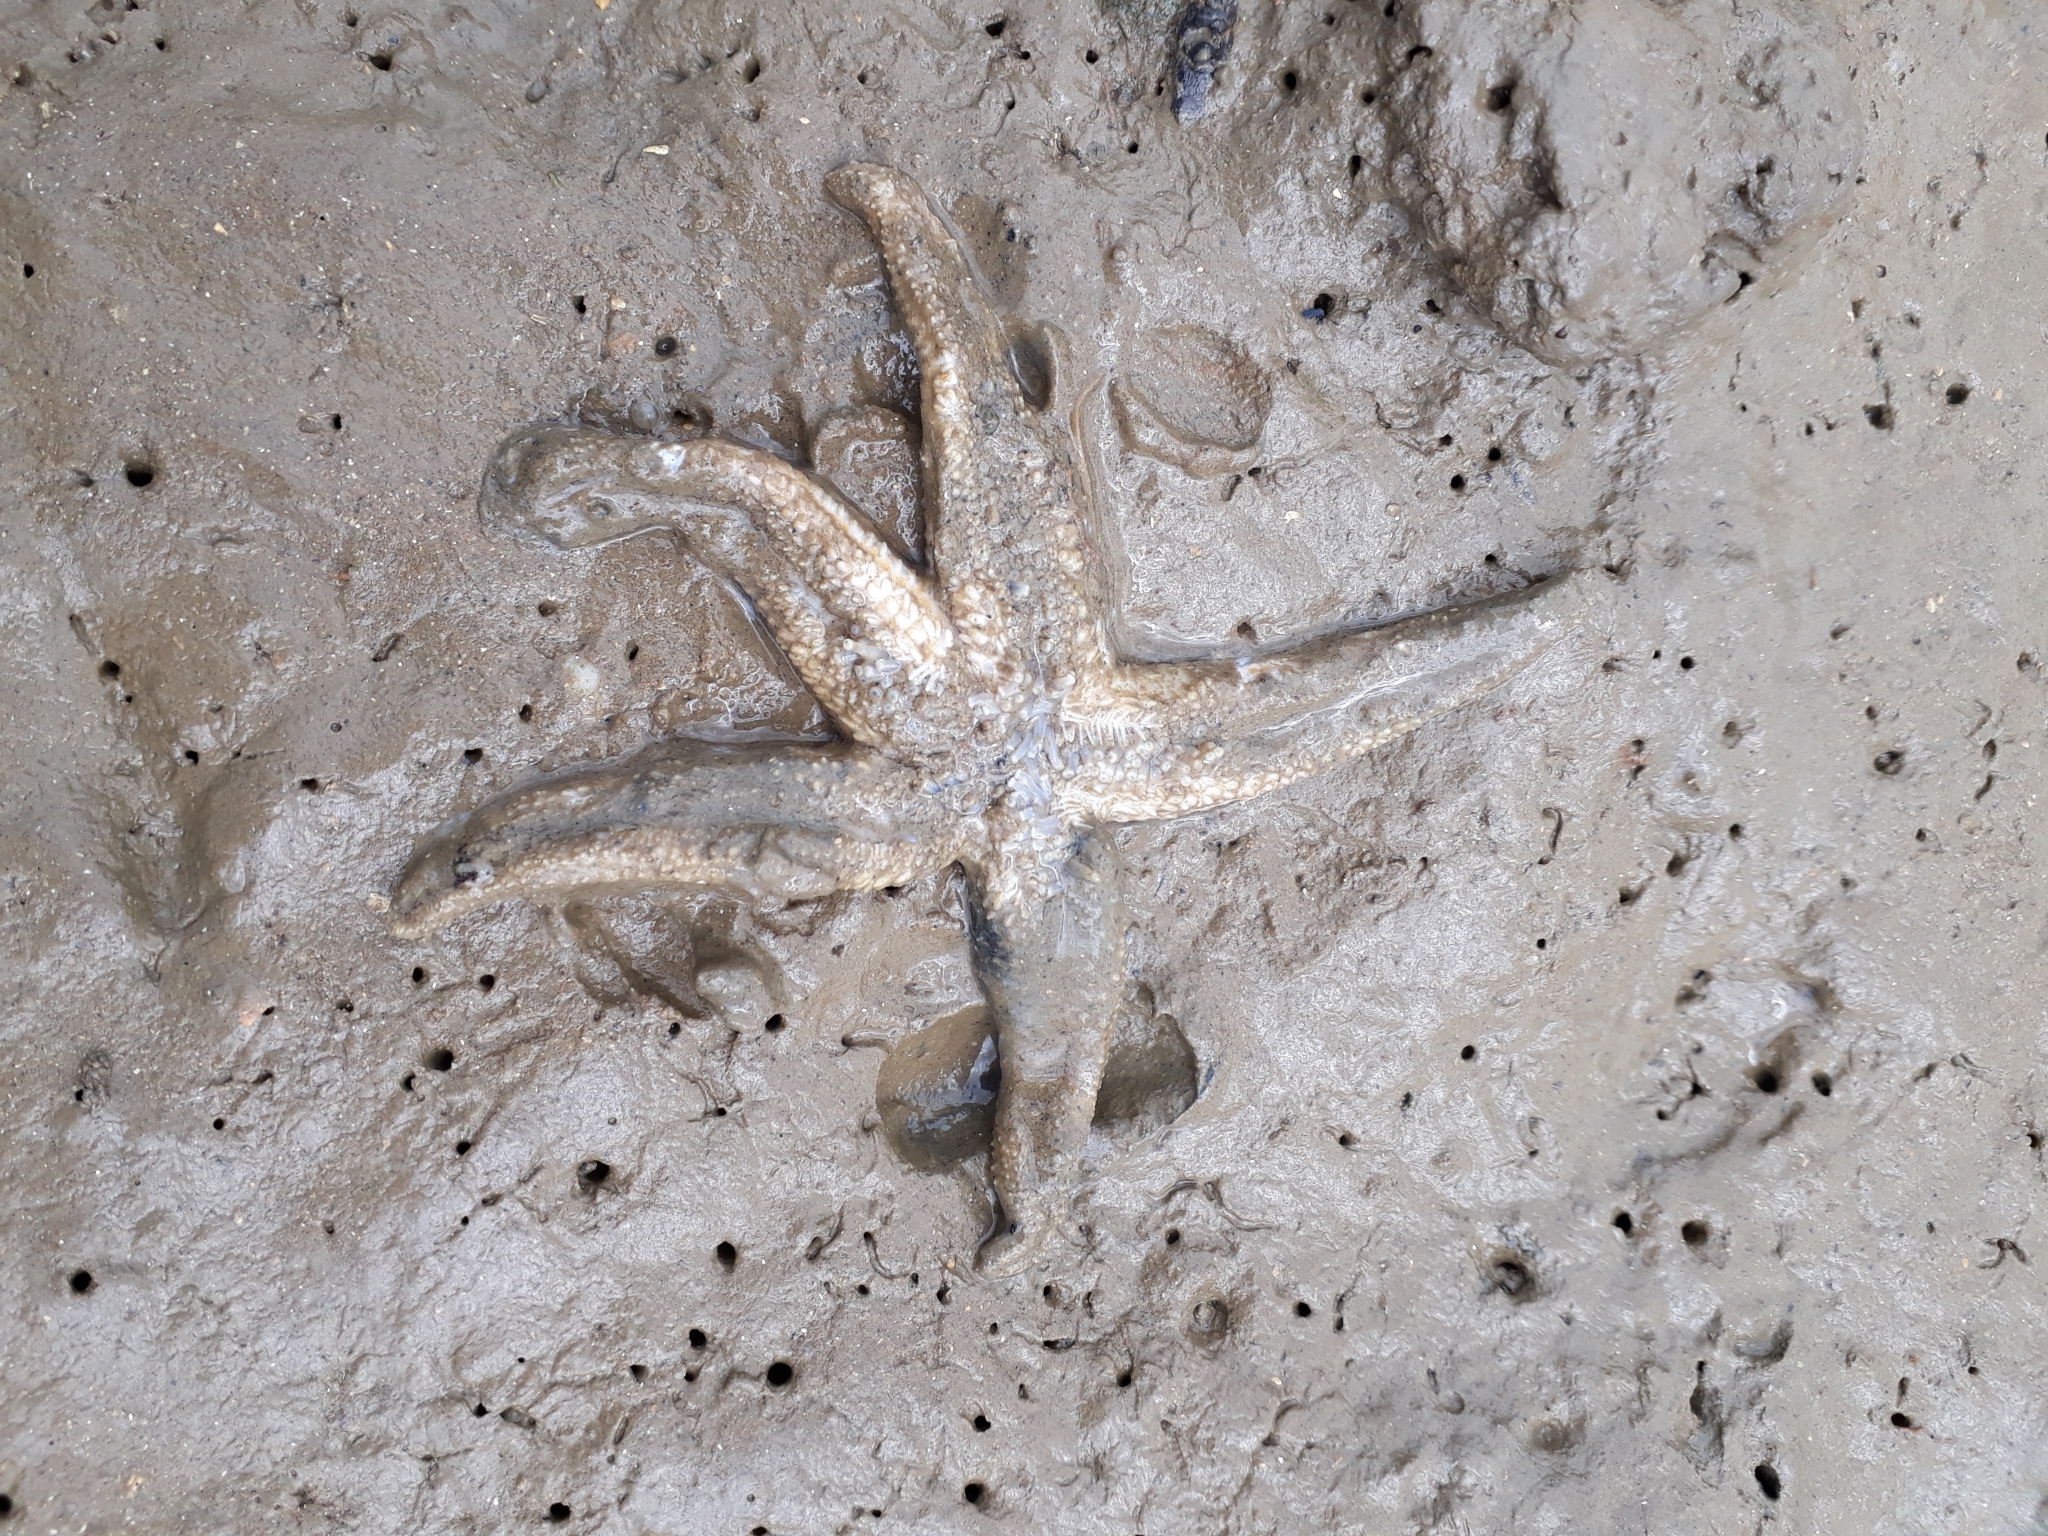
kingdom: Animalia
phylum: Echinodermata
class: Asteroidea
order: Forcipulatida
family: Asteriidae
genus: Asterias
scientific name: Asterias rubens
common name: Common starfish
